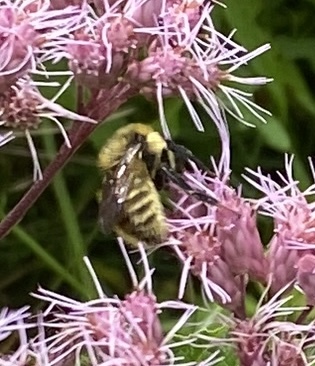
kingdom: Animalia
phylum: Arthropoda
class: Insecta
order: Hymenoptera
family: Apidae
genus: Bombus
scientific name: Bombus rufocinctus
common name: Red-belted bumble bee
